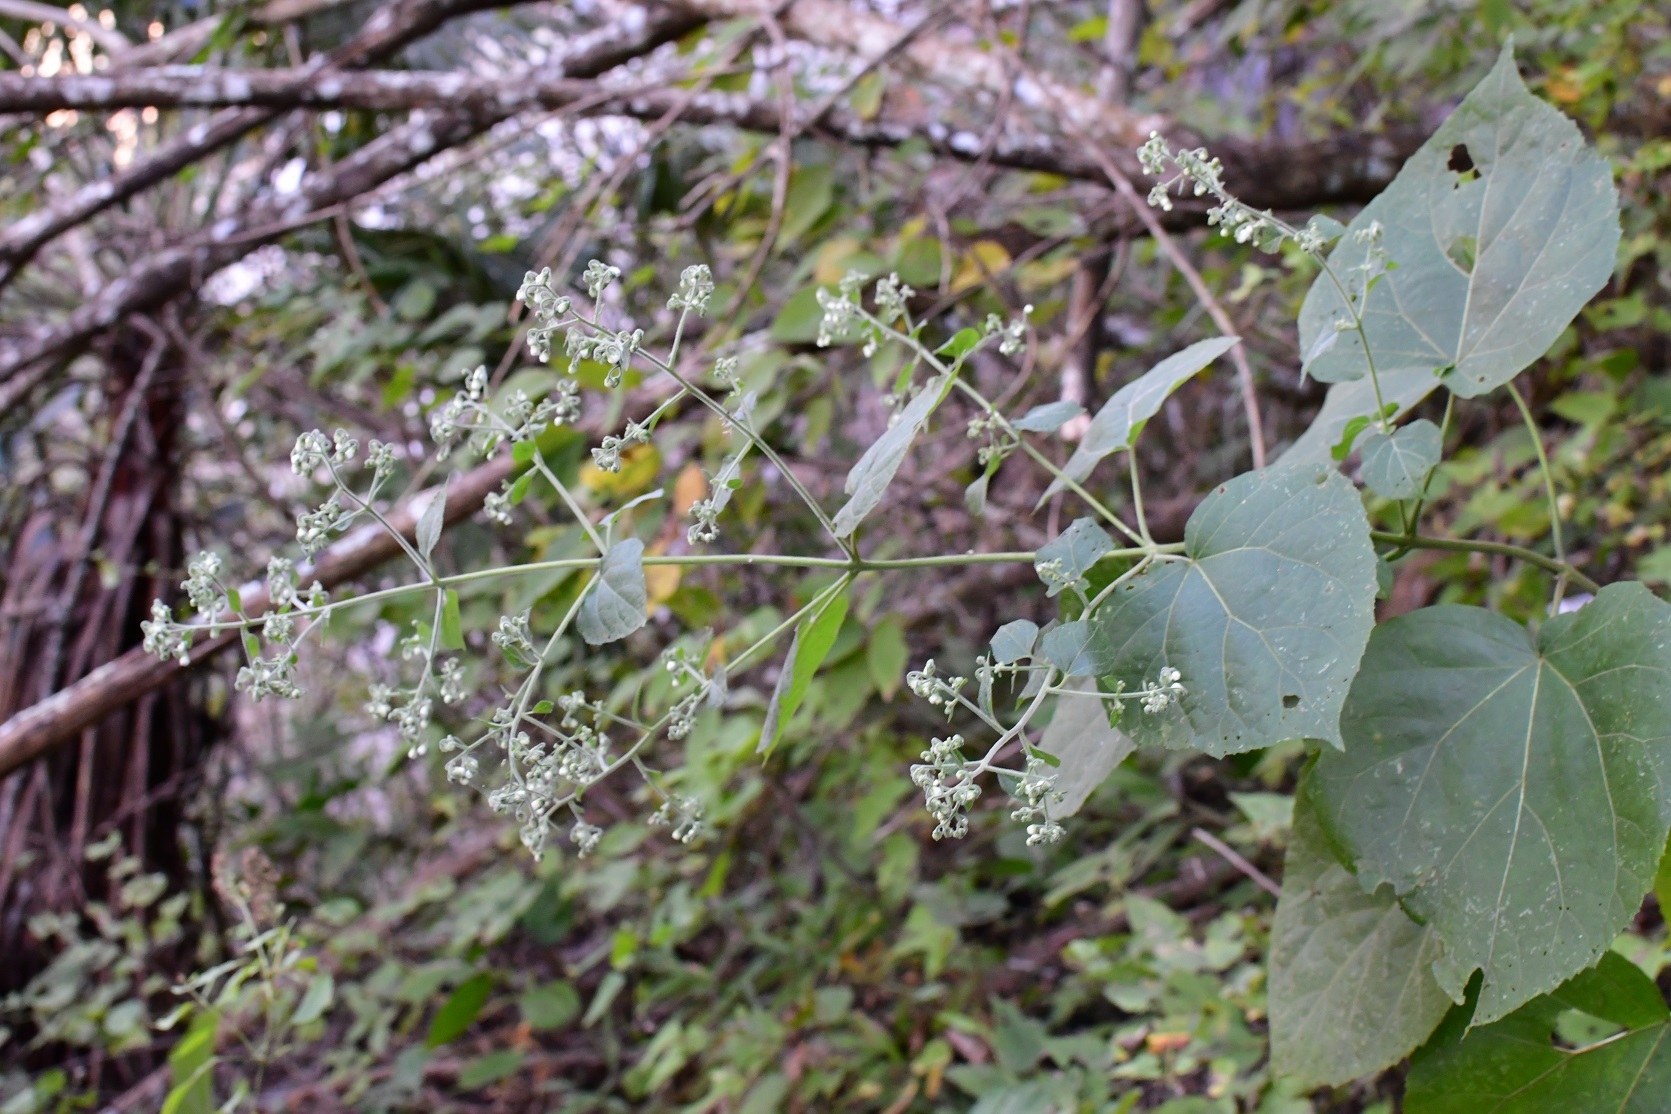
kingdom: Plantae
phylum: Tracheophyta
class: Magnoliopsida
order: Asterales
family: Asteraceae
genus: Peteravenia
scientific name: Peteravenia schultzii
